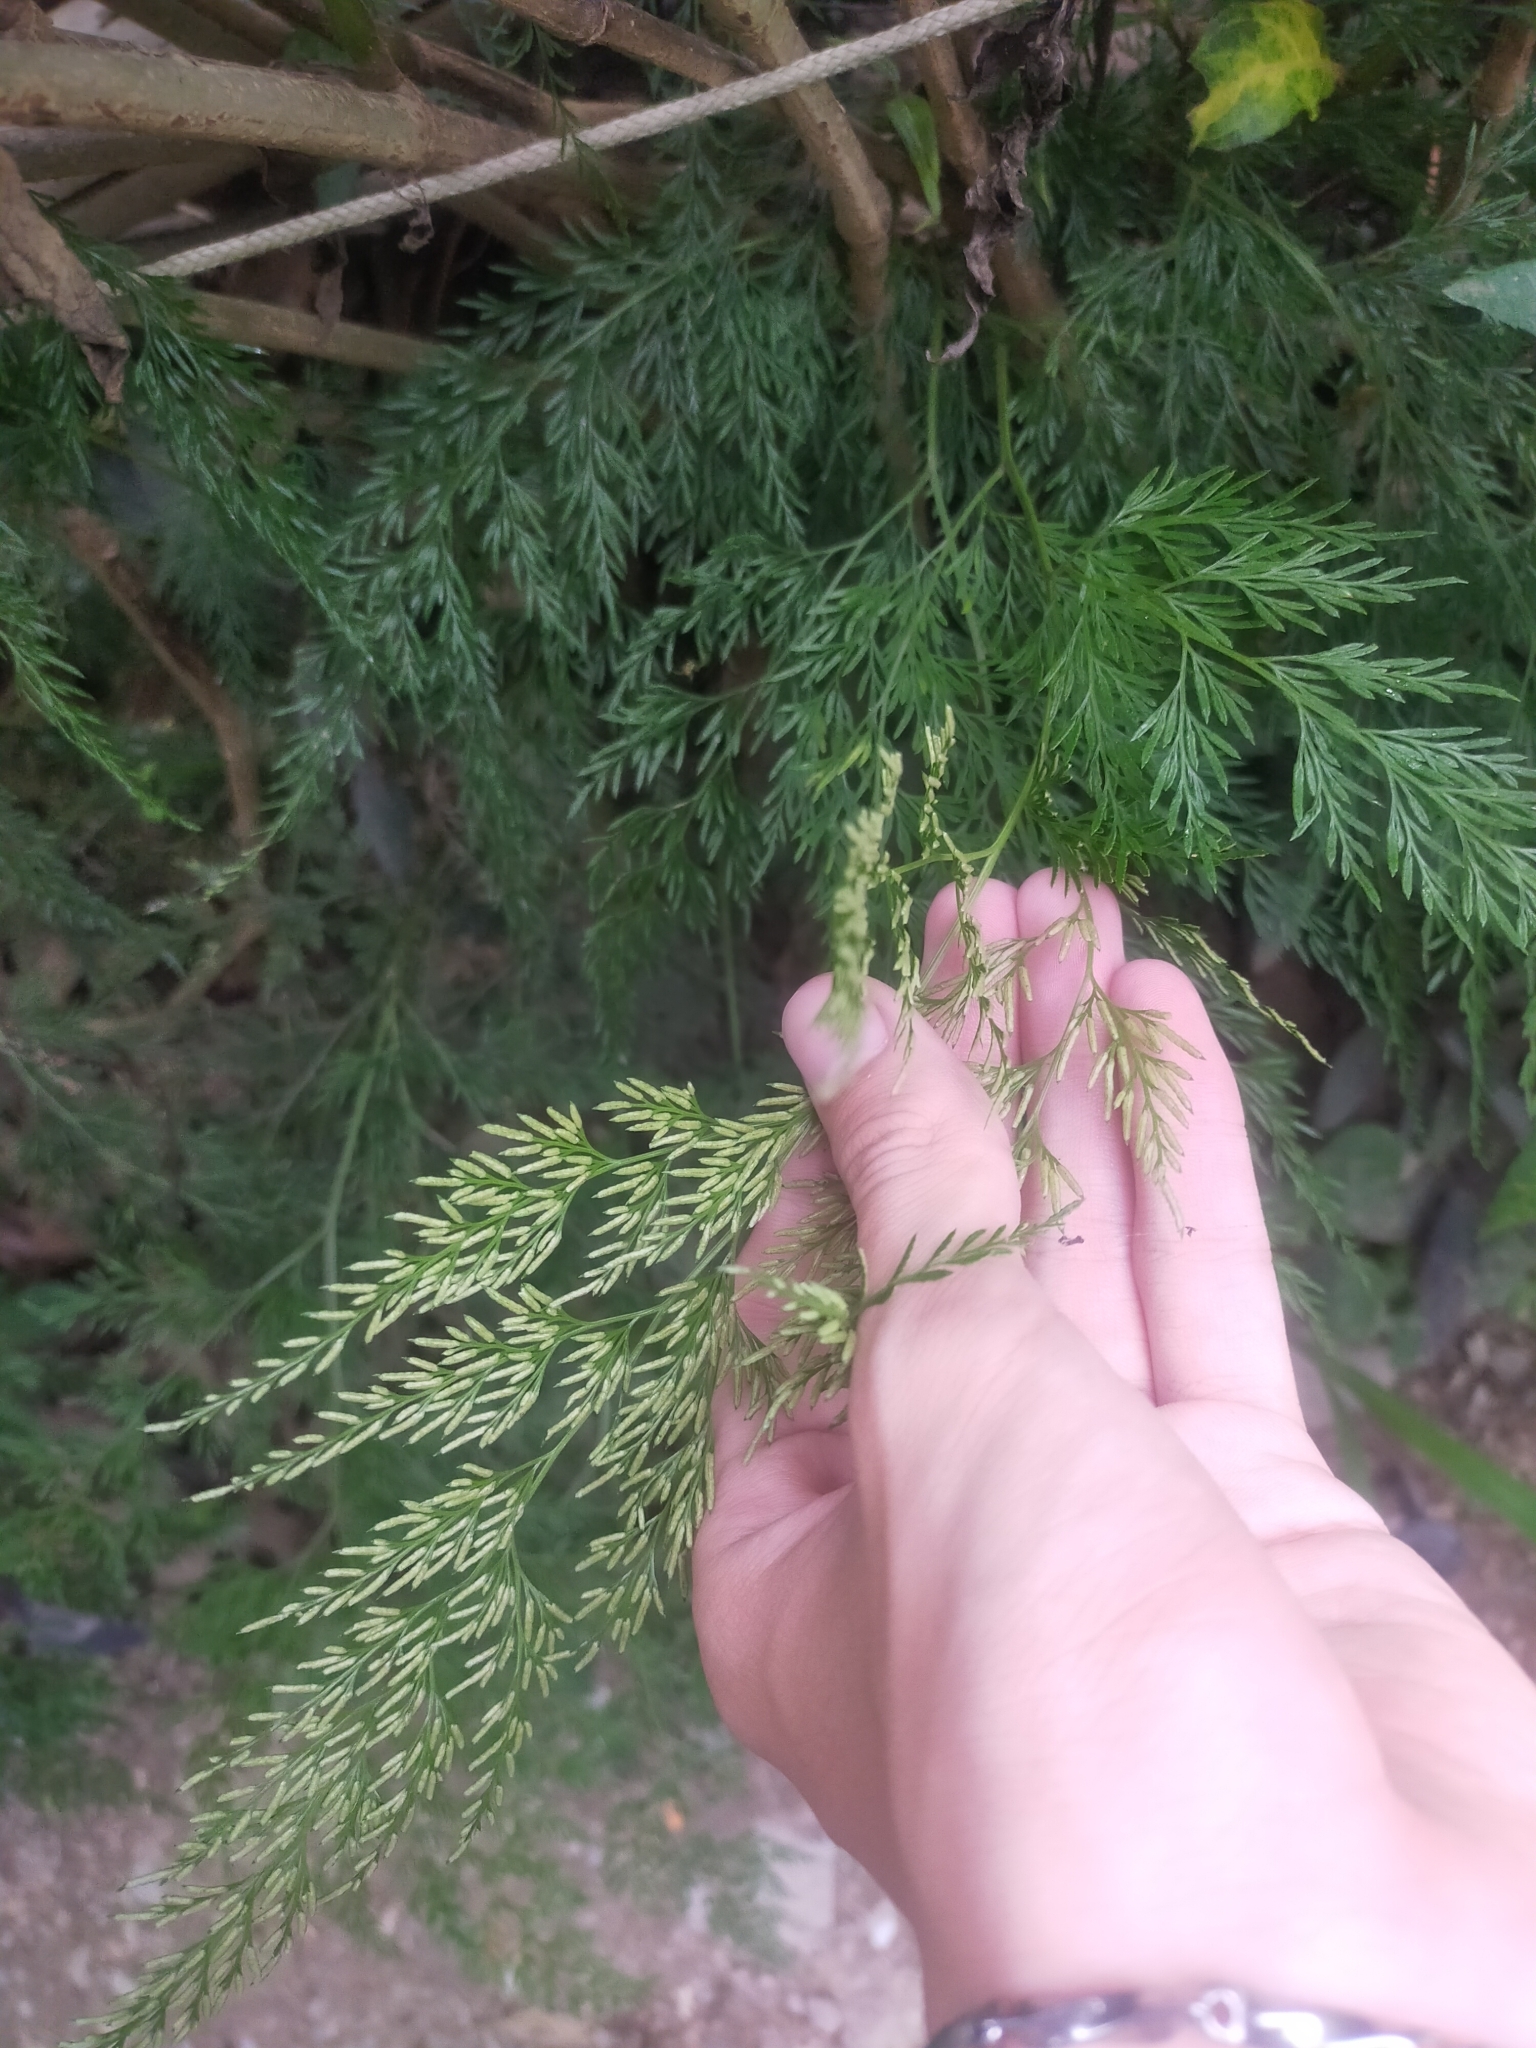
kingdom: Plantae
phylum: Tracheophyta
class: Polypodiopsida
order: Polypodiales
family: Pteridaceae
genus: Onychium
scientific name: Onychium japonicum
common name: Carrot fern
